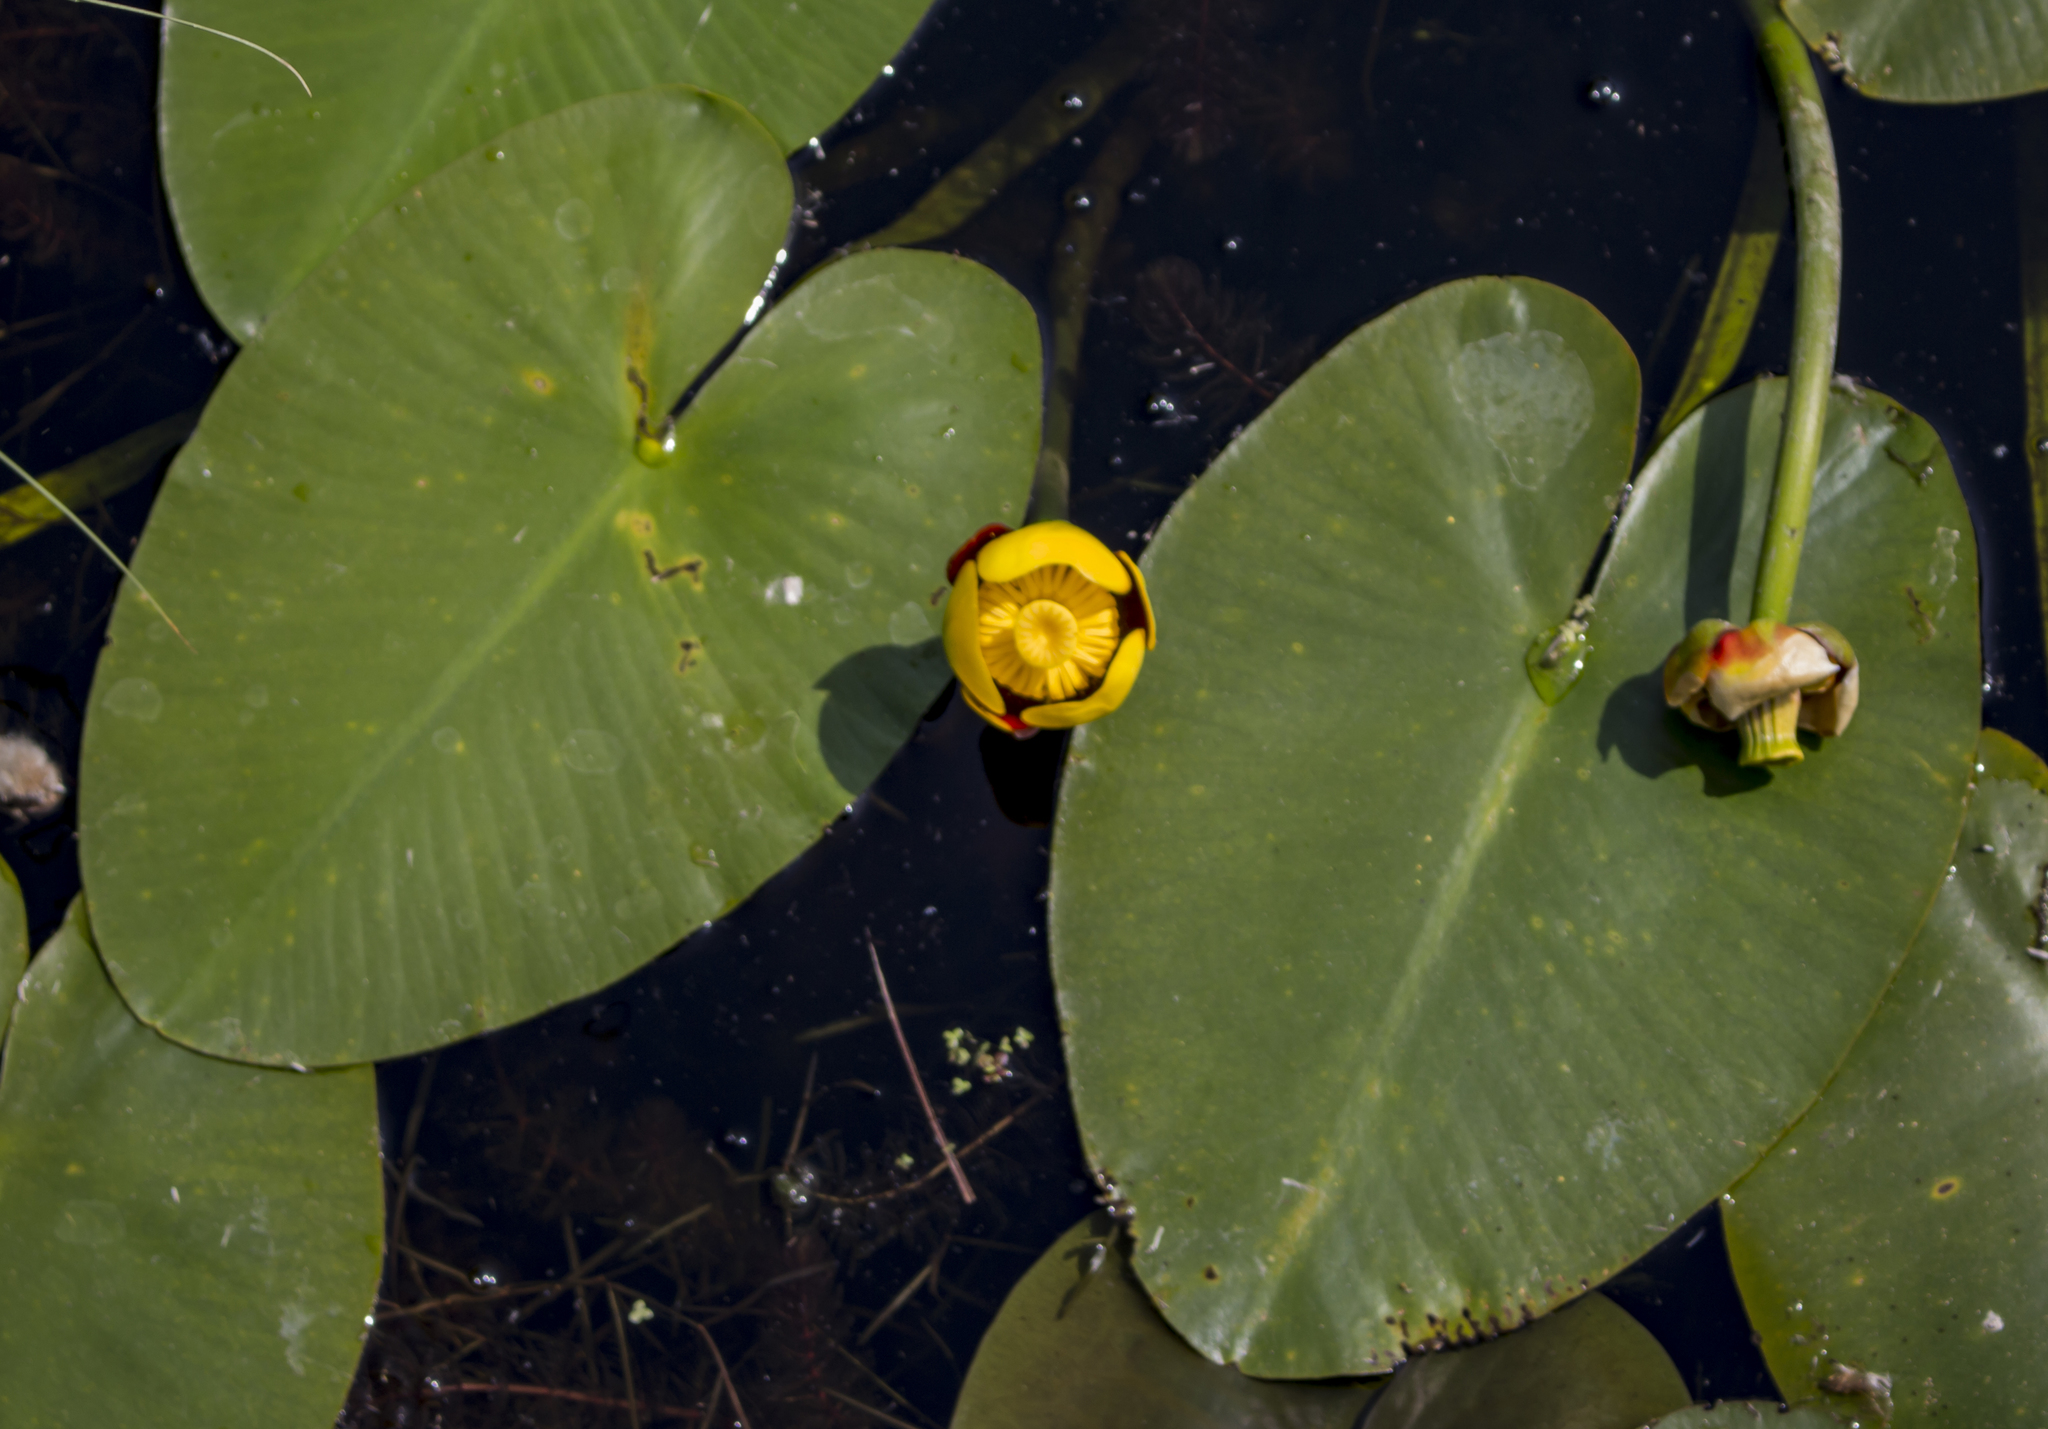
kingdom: Plantae
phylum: Tracheophyta
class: Magnoliopsida
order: Nymphaeales
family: Nymphaeaceae
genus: Nuphar
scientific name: Nuphar variegata
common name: Beaver-root
